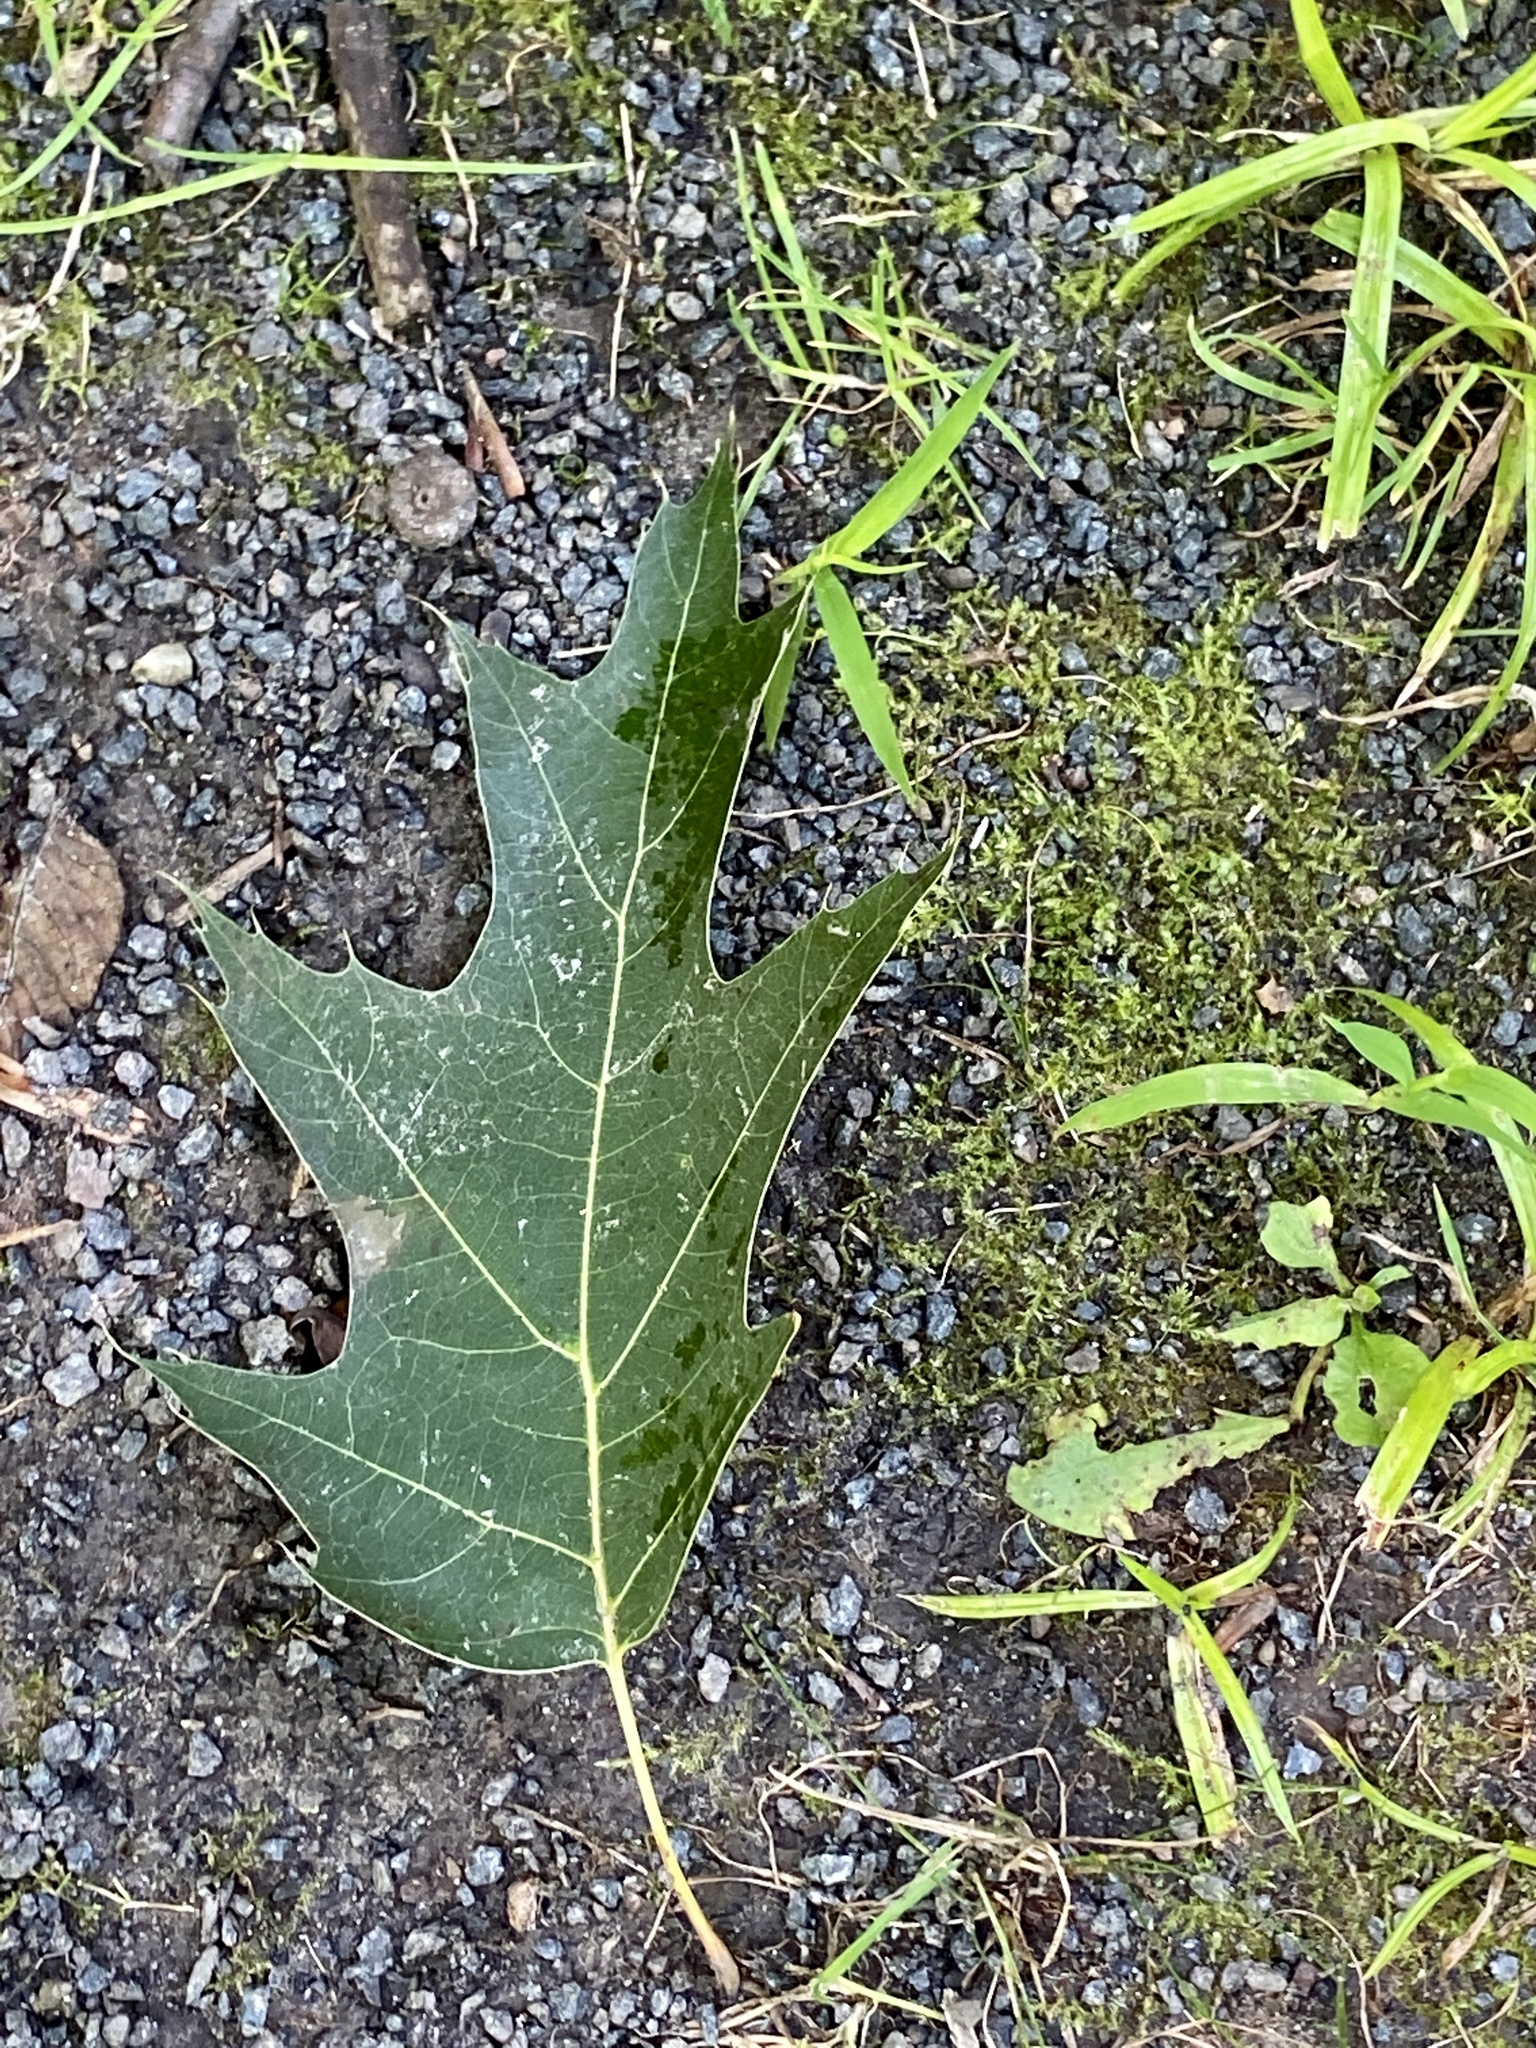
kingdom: Plantae
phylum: Tracheophyta
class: Magnoliopsida
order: Fagales
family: Fagaceae
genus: Quercus
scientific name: Quercus rubra
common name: Red oak
